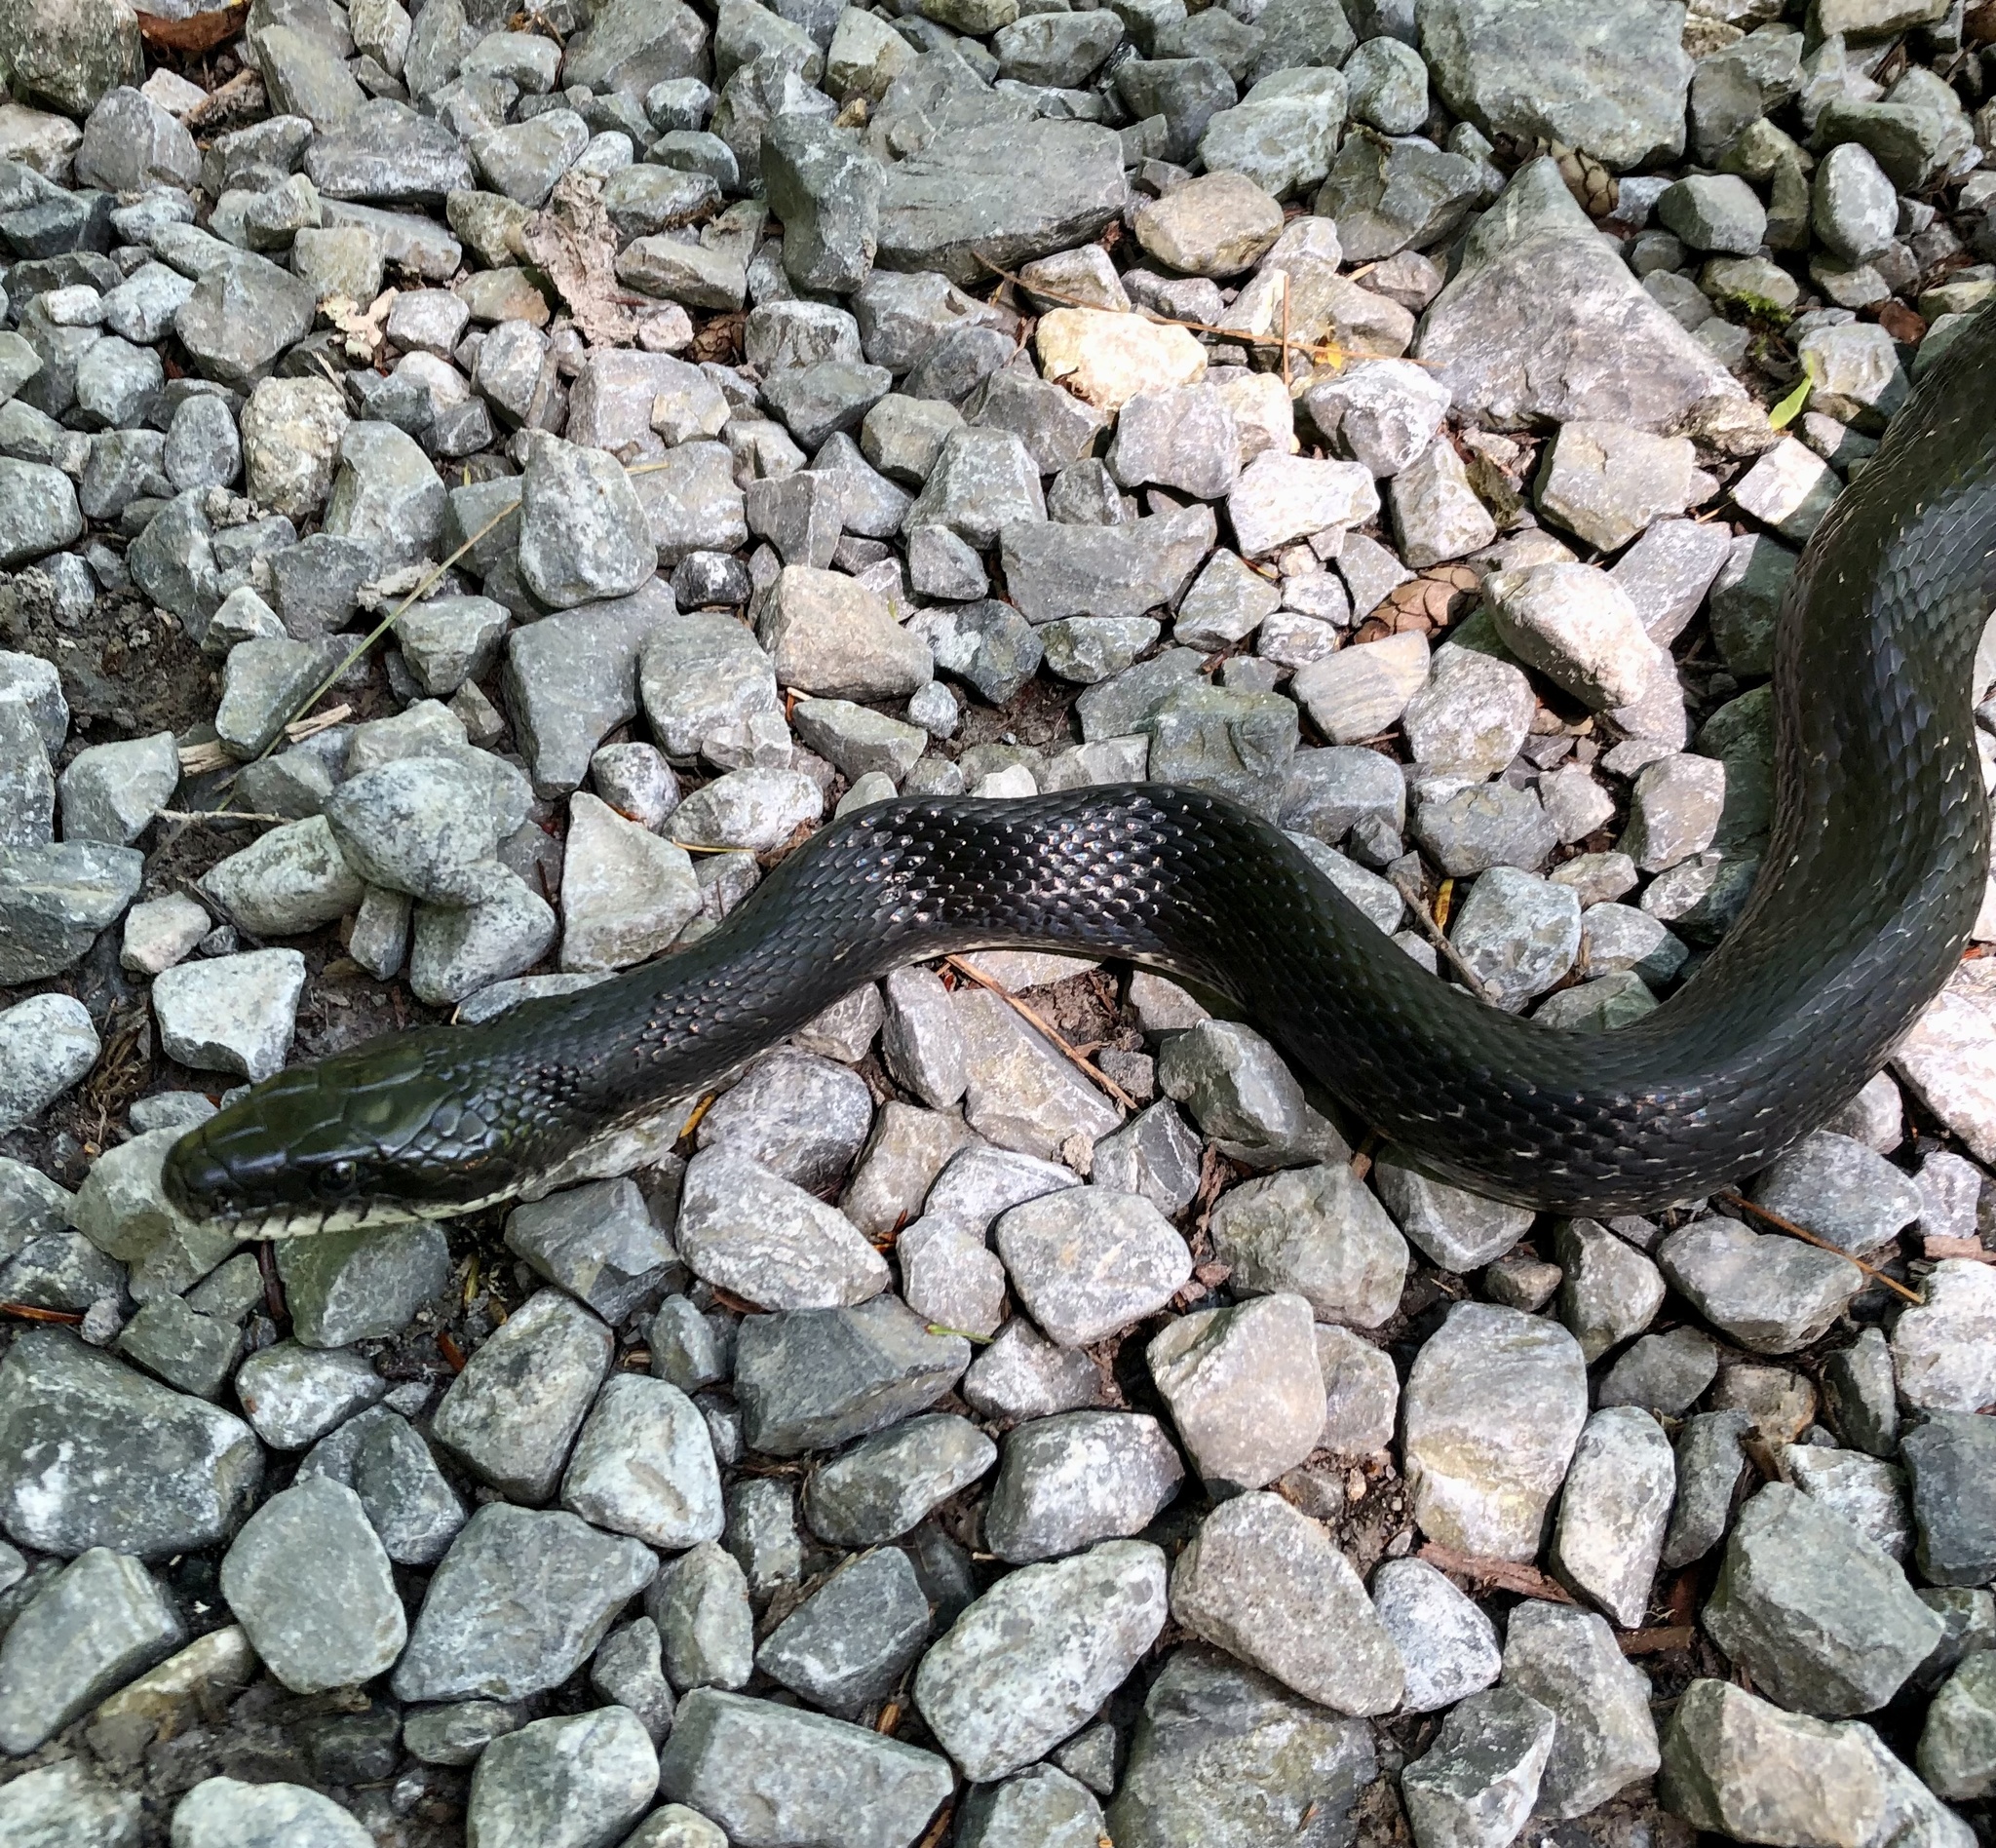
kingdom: Animalia
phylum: Chordata
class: Squamata
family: Colubridae
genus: Pantherophis
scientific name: Pantherophis spiloides
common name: Gray rat snake
